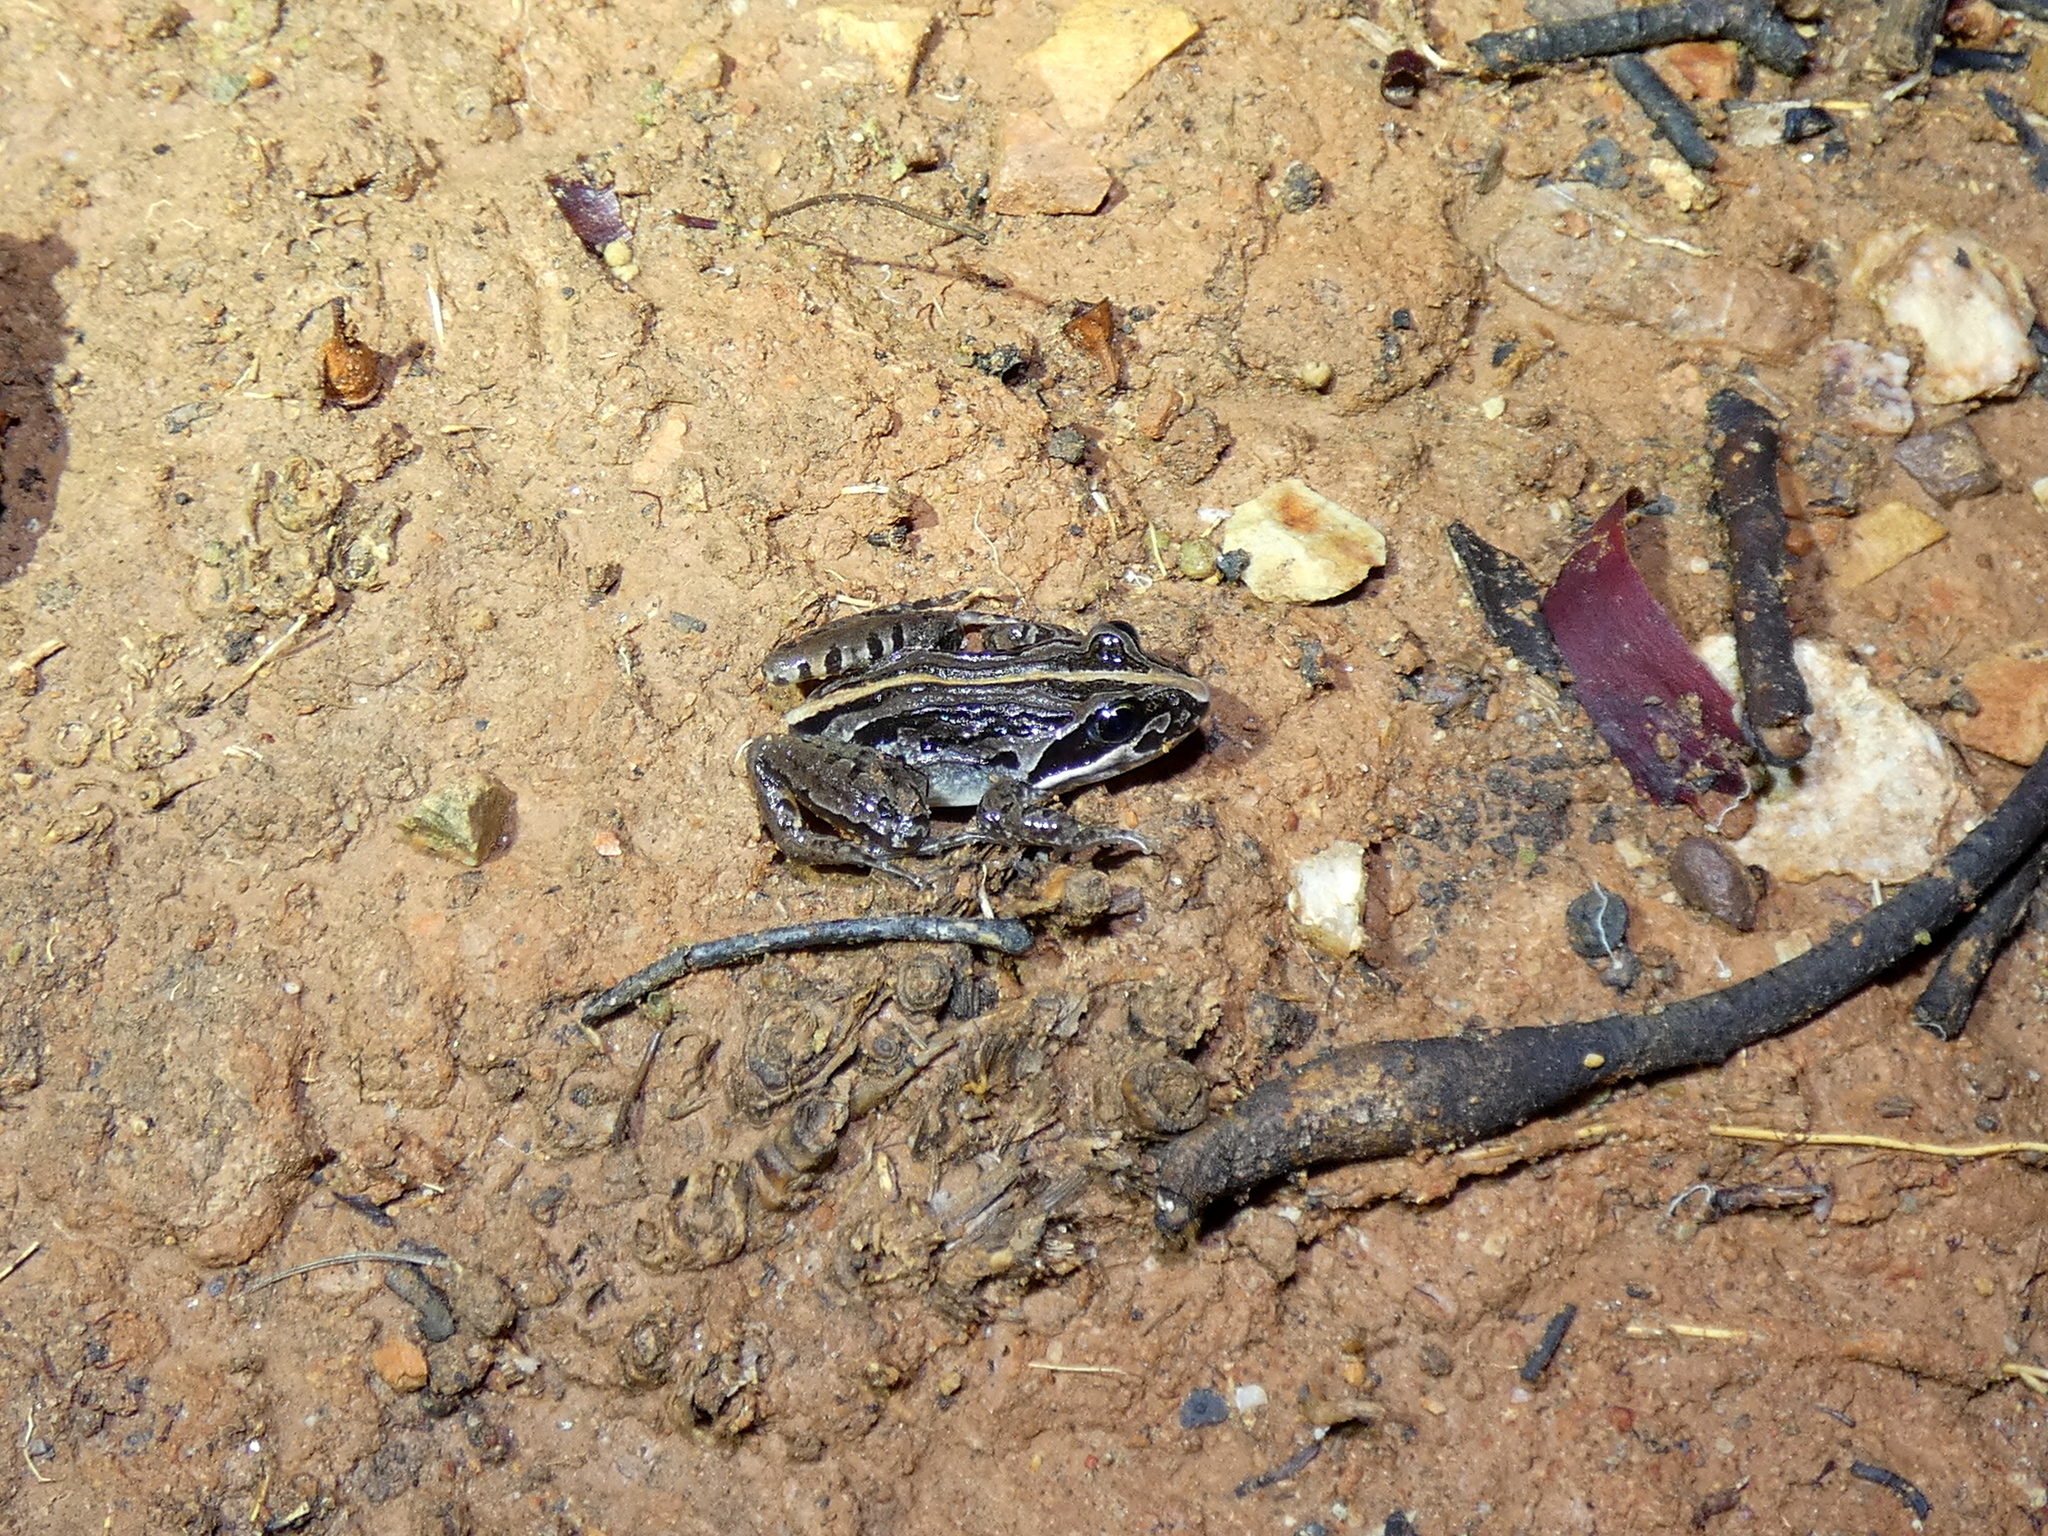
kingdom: Animalia
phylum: Chordata
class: Amphibia
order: Anura
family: Limnodynastidae
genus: Limnodynastes
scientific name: Limnodynastes peronii
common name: Brown frog
